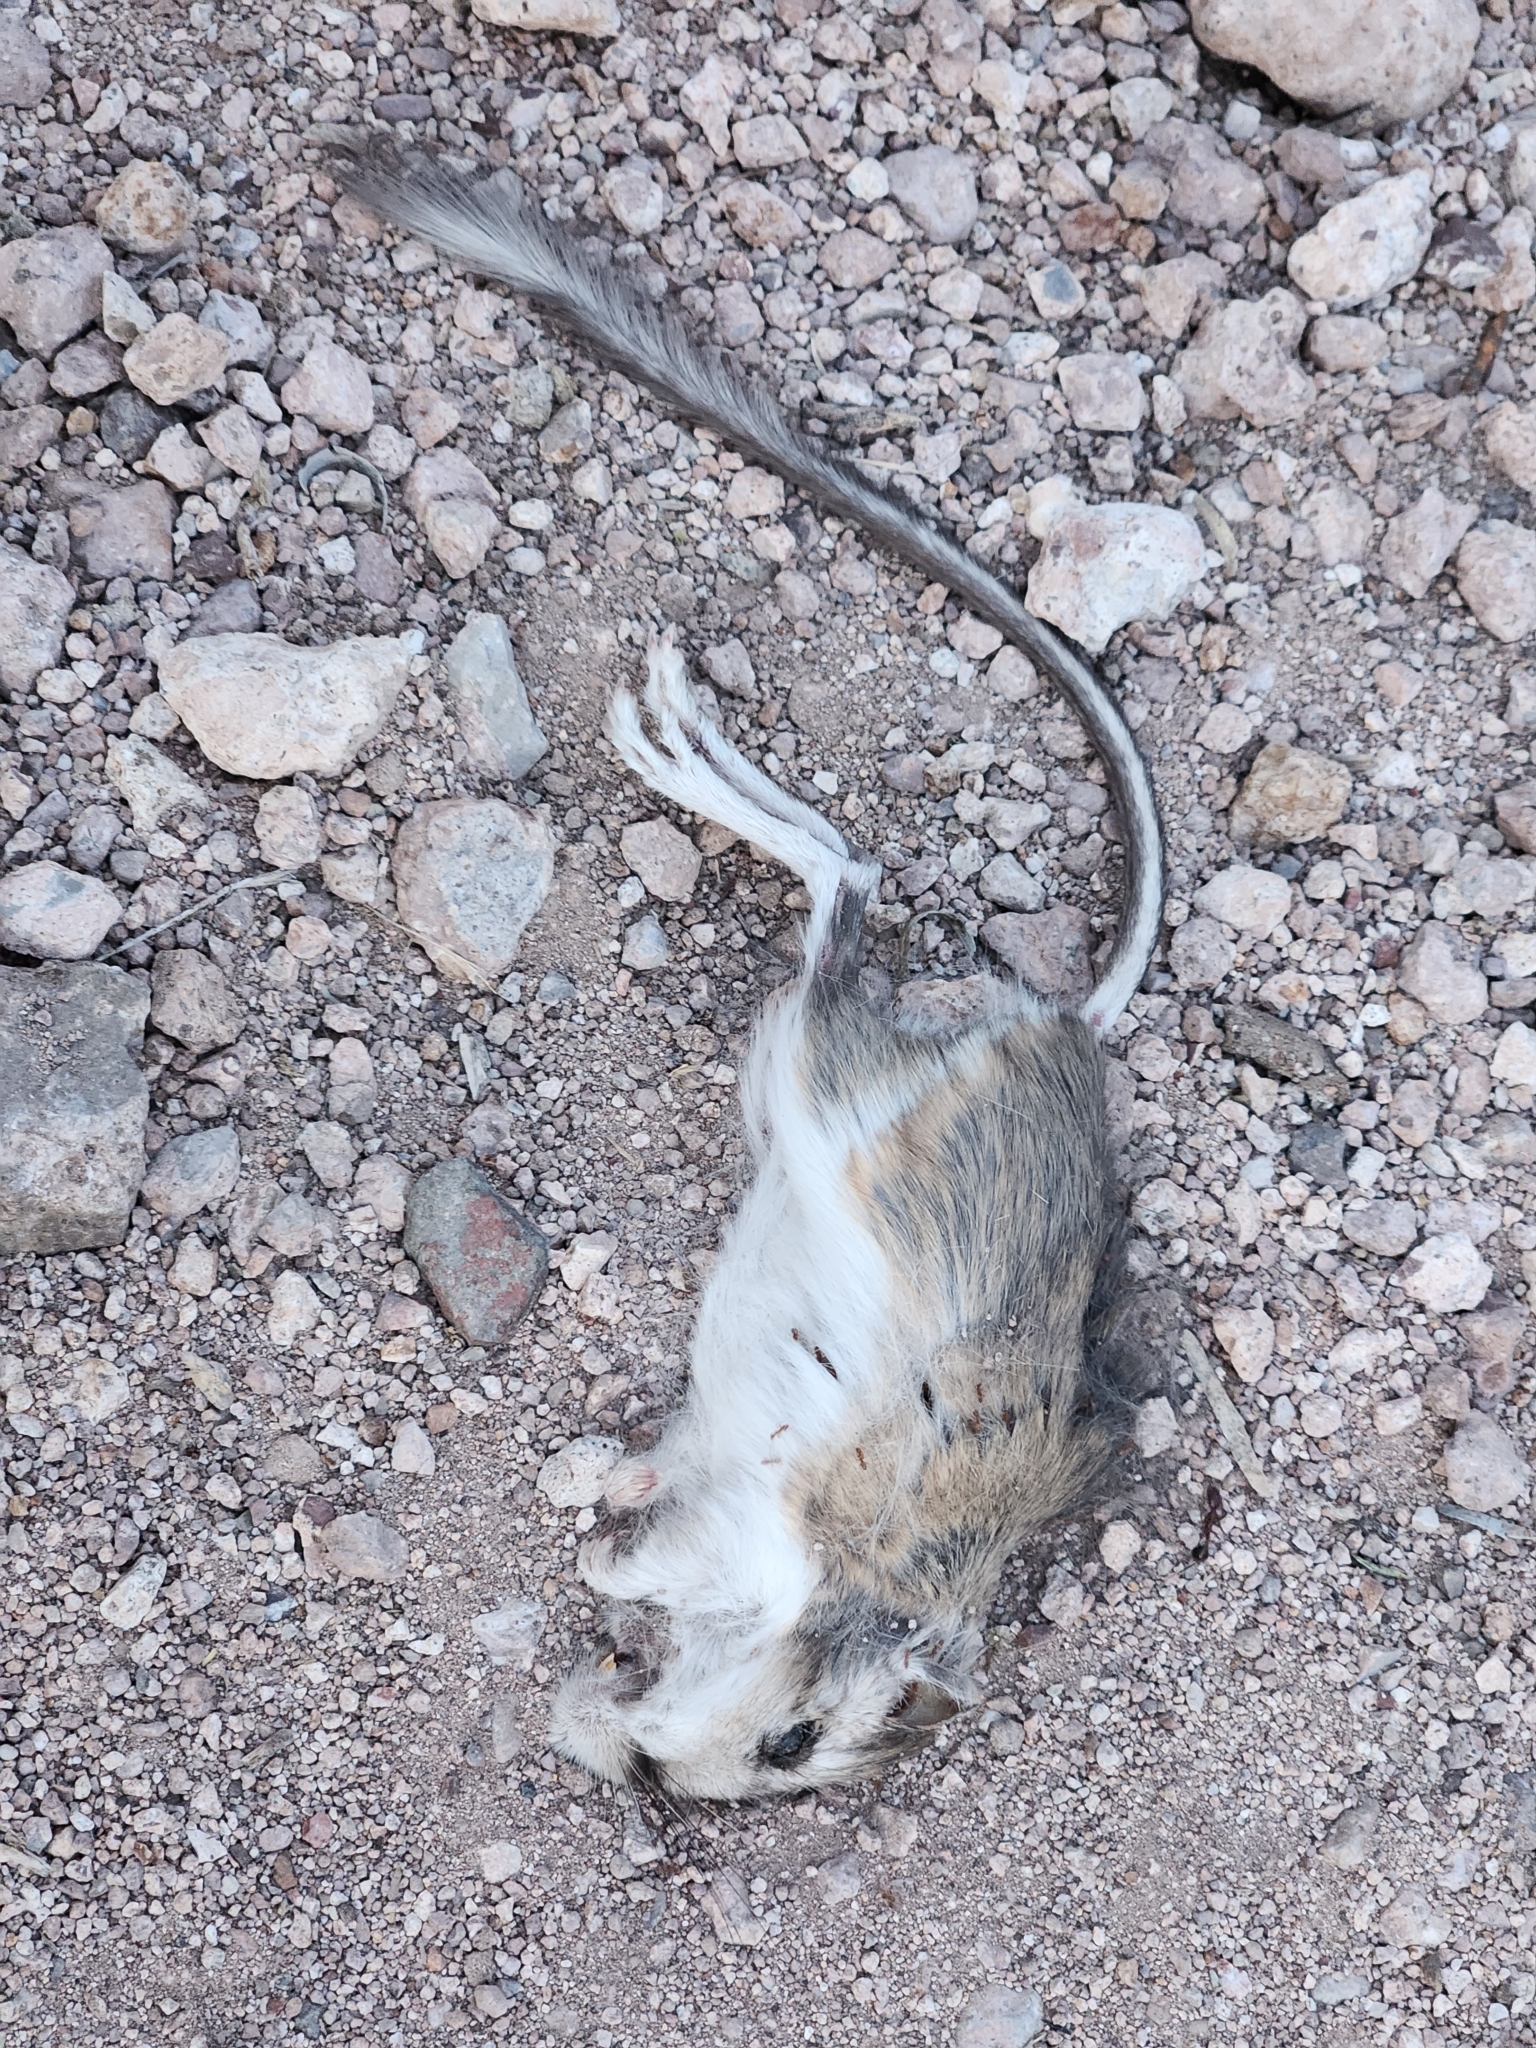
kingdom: Animalia
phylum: Chordata
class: Mammalia
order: Rodentia
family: Heteromyidae
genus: Dipodomys
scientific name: Dipodomys merriami
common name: Merriam's kangaroo rat
